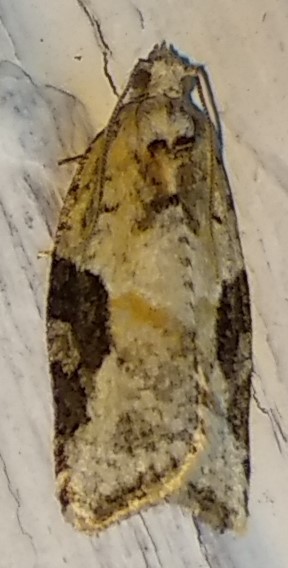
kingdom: Animalia
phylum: Arthropoda
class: Insecta
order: Lepidoptera
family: Tortricidae
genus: Argyrotaenia
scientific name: Argyrotaenia mariana
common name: Gray-banded leafroller moth
